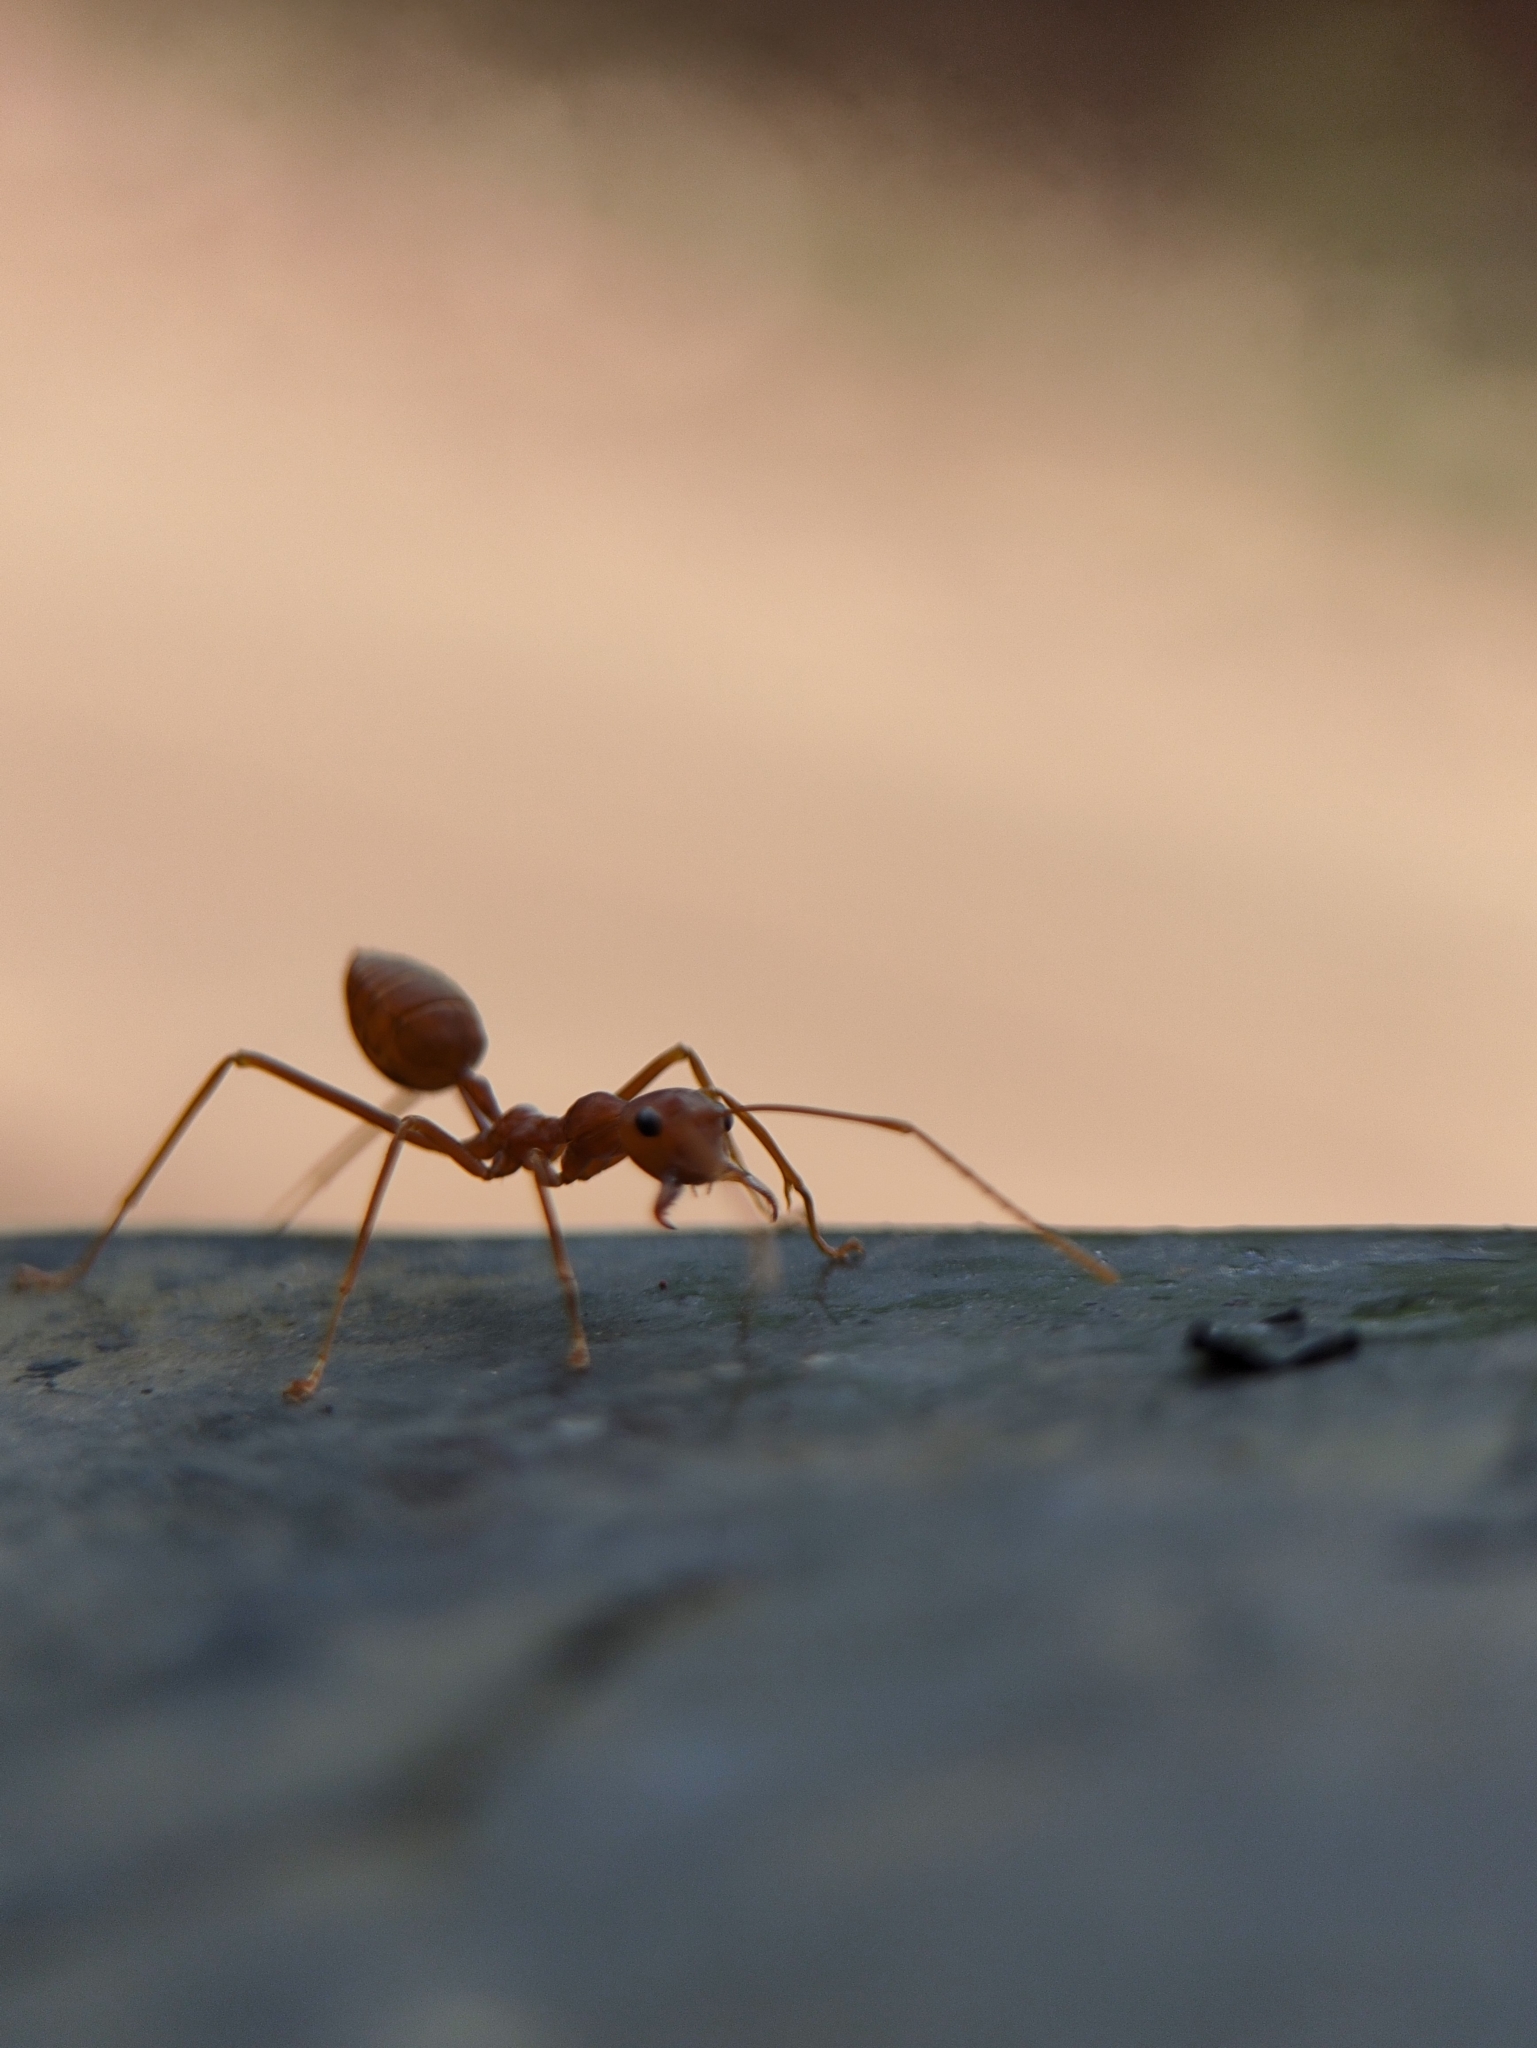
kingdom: Animalia
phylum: Arthropoda
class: Insecta
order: Hymenoptera
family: Formicidae
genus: Oecophylla
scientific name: Oecophylla smaragdina
